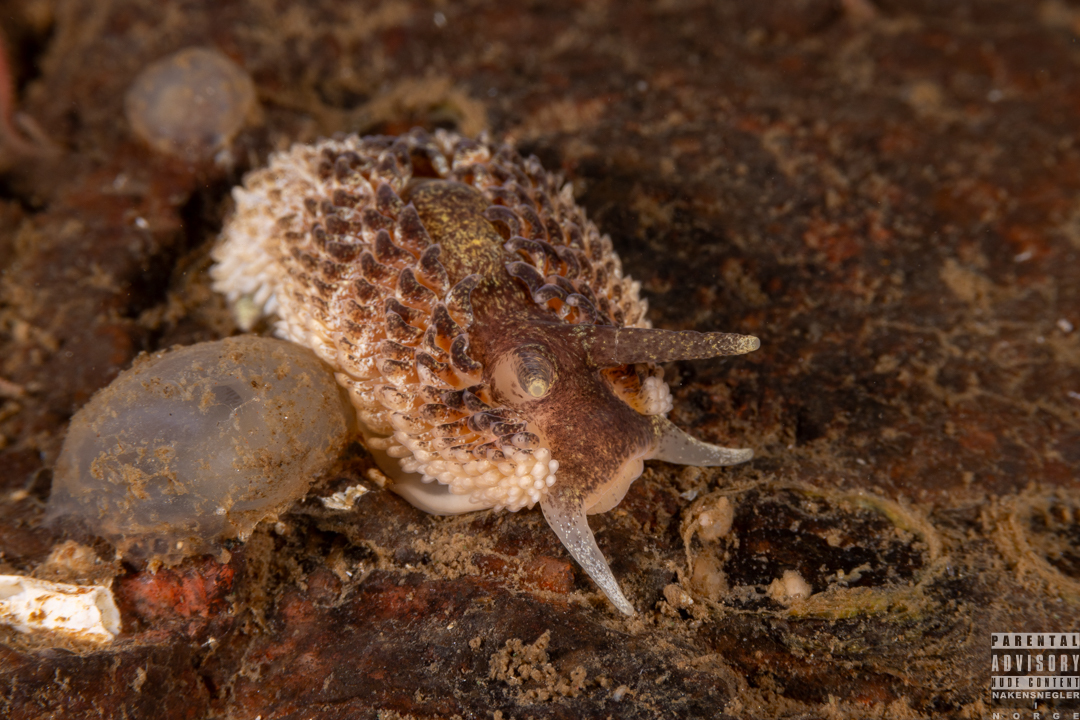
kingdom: Animalia
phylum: Mollusca
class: Gastropoda
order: Nudibranchia
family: Aeolidiidae
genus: Aeolidia
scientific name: Aeolidia papillosa
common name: Common grey sea slug
